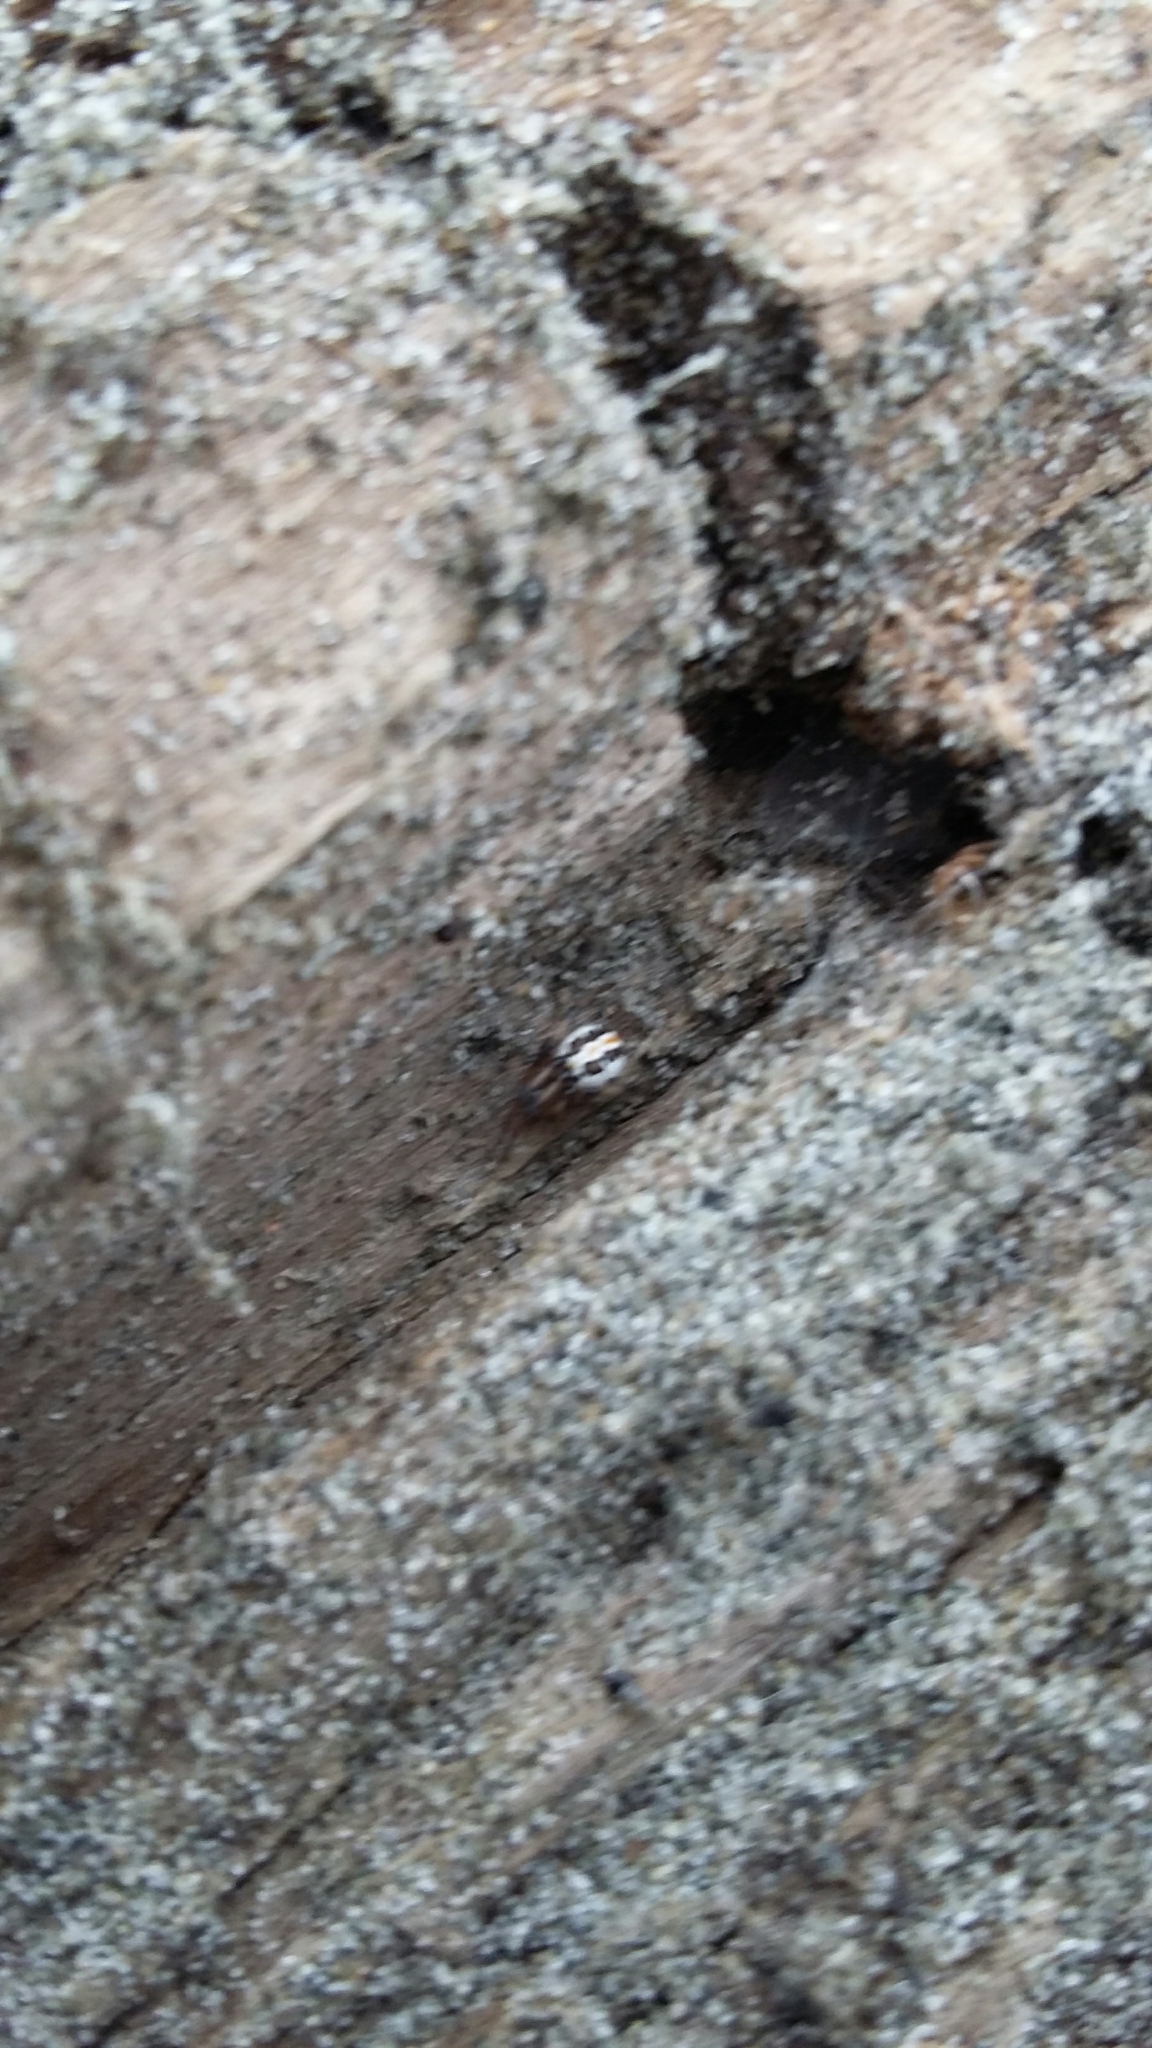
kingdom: Animalia
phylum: Arthropoda
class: Arachnida
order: Araneae
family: Theridiidae
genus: Latrodectus
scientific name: Latrodectus katipo
